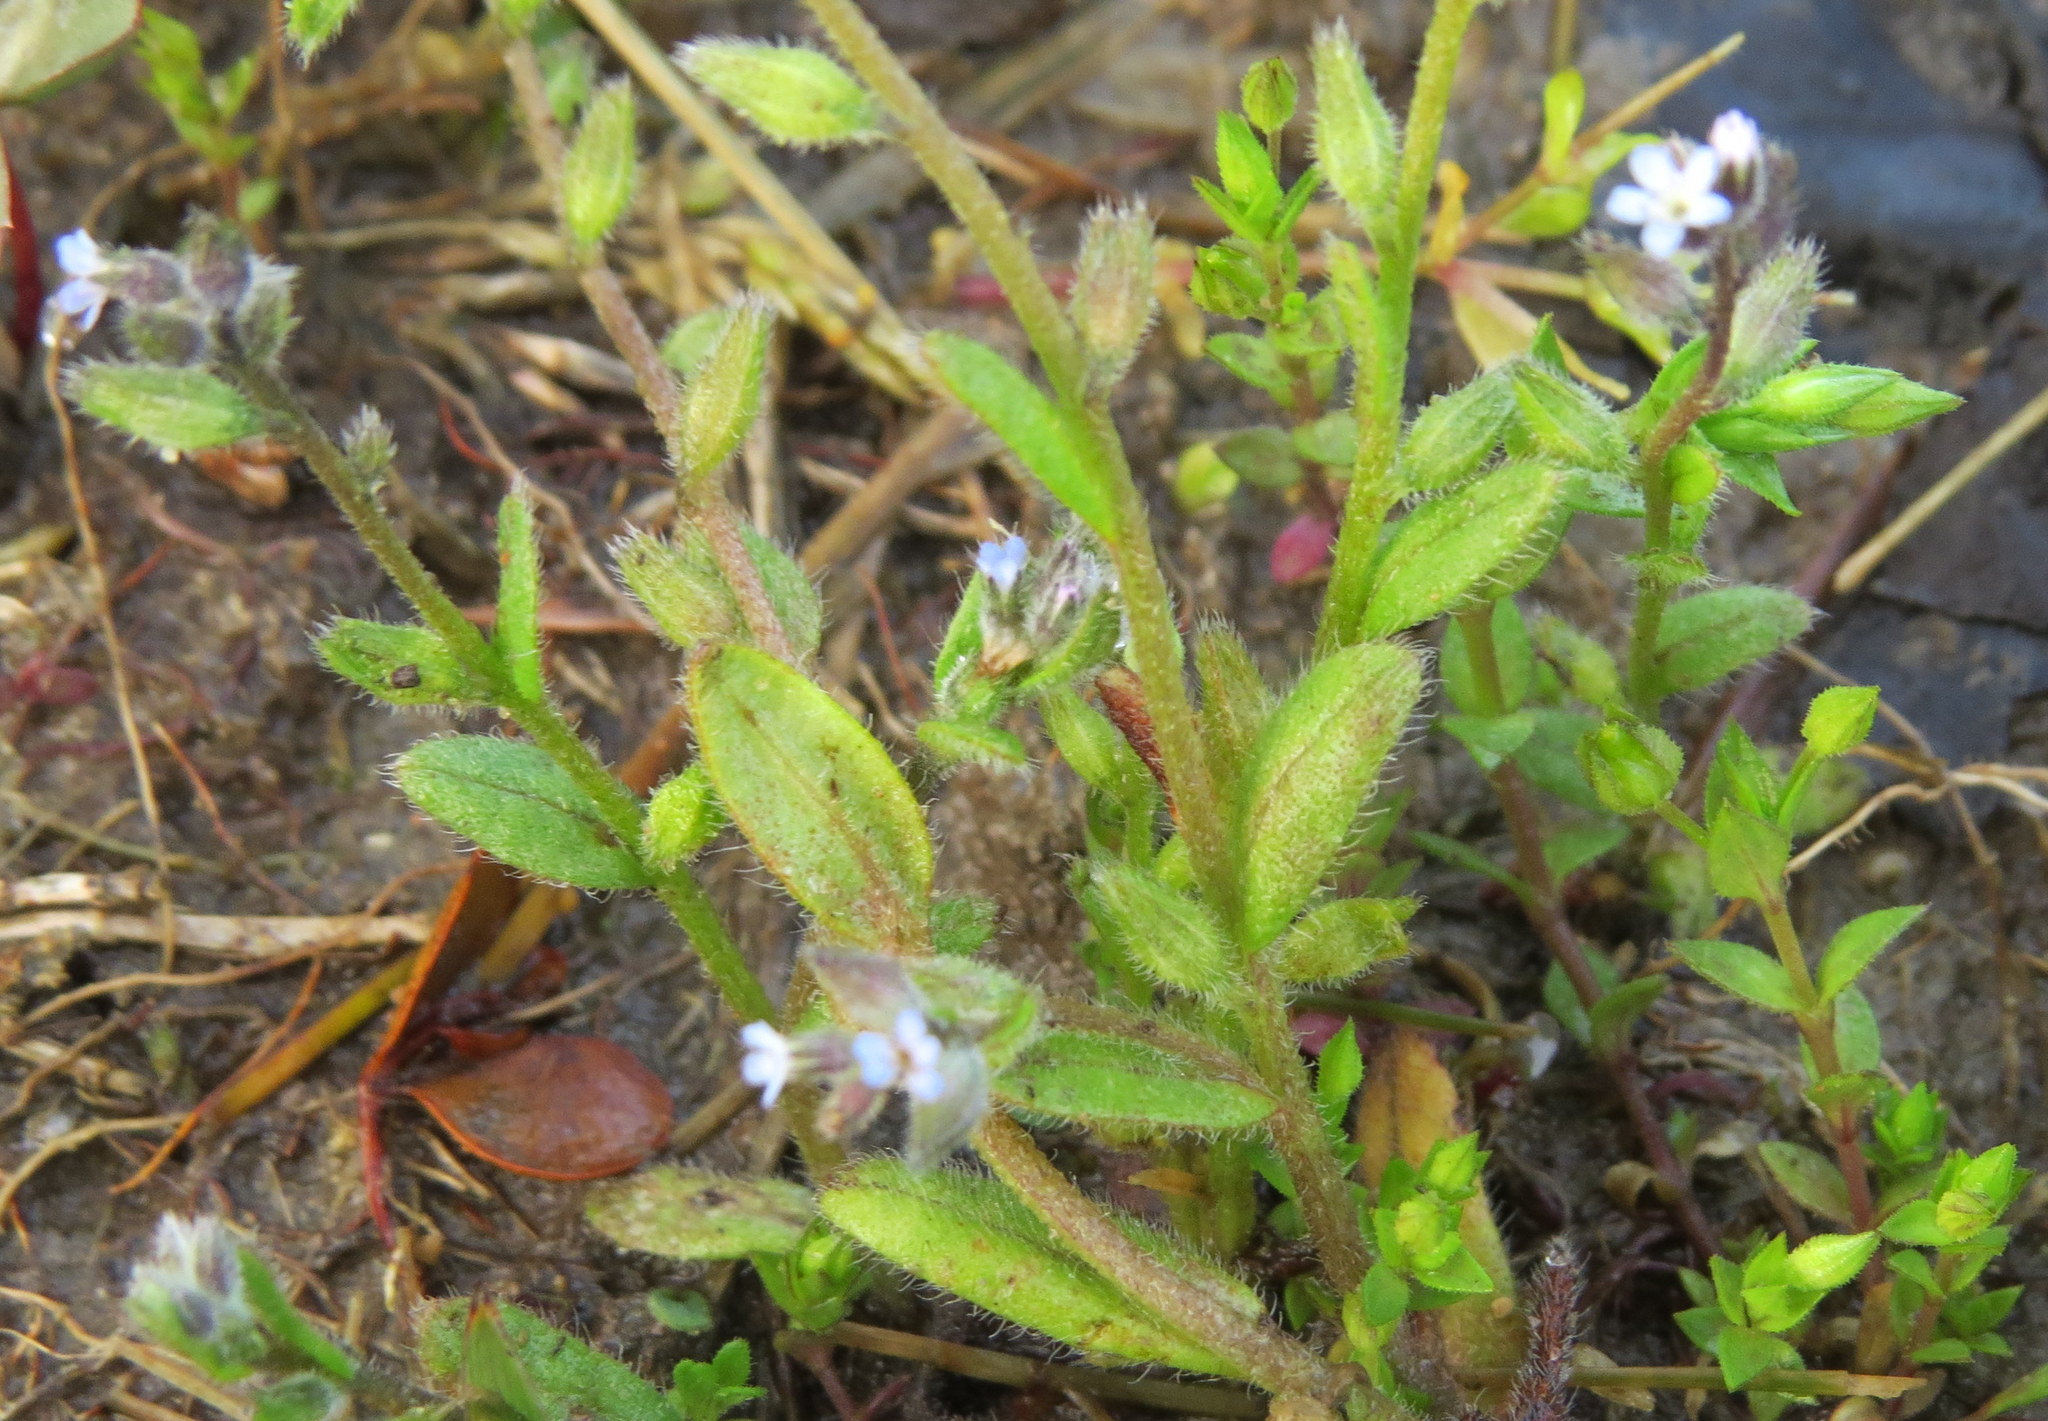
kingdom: Plantae
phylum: Tracheophyta
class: Magnoliopsida
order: Boraginales
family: Boraginaceae
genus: Myosotis
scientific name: Myosotis stricta
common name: Strict forget-me-not
